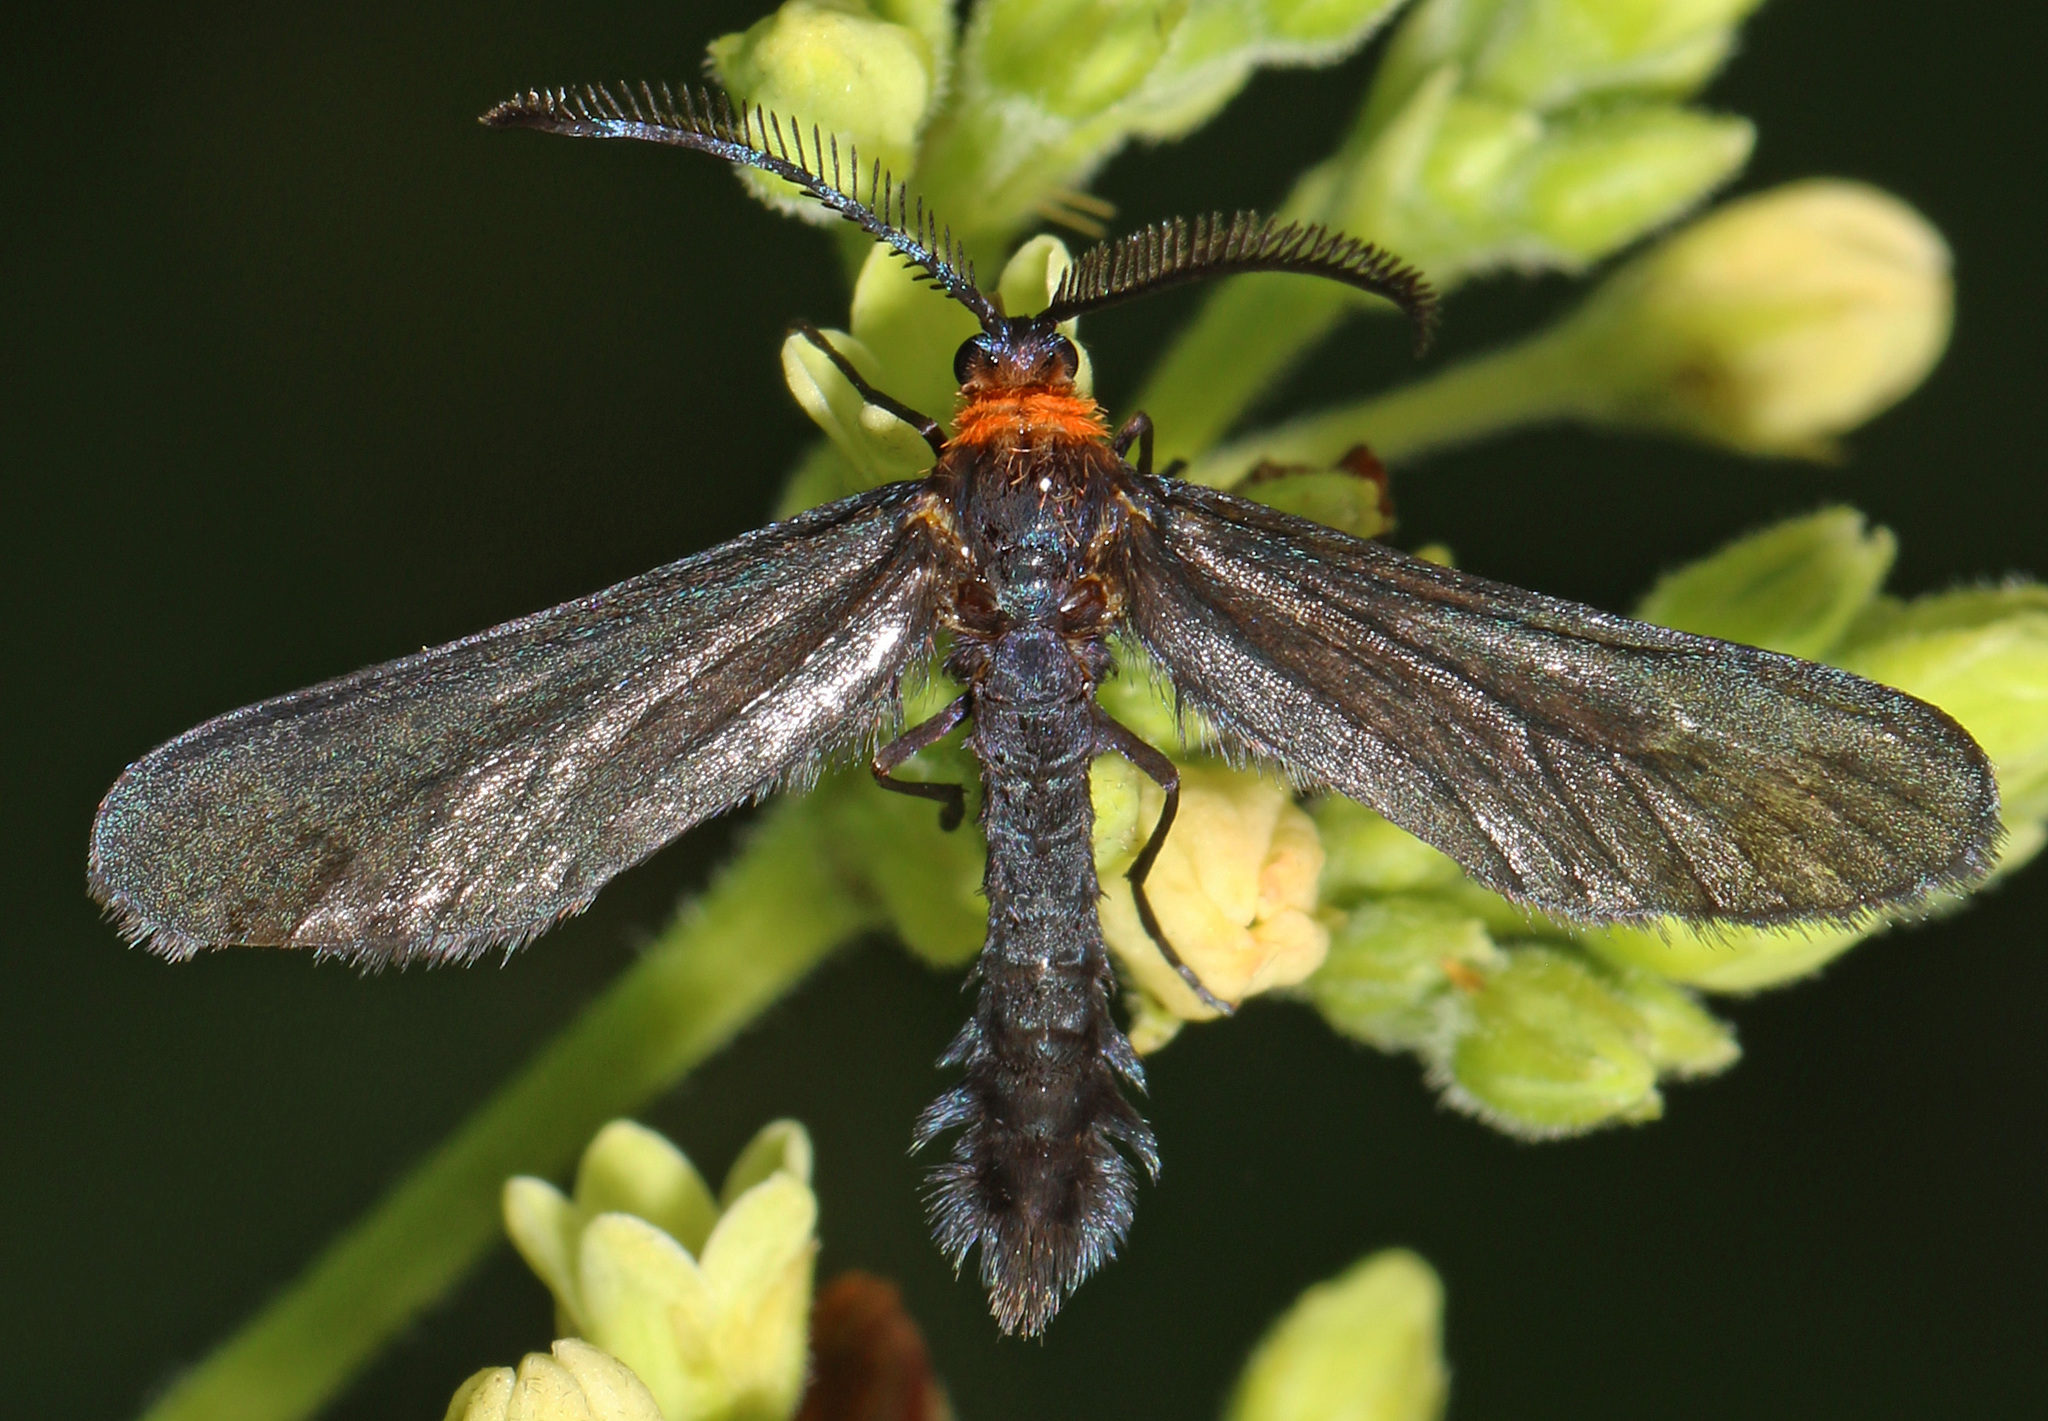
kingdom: Animalia
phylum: Arthropoda
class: Insecta
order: Lepidoptera
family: Zygaenidae
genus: Harrisina
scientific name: Harrisina americana
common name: Grapeleaf skeletonizer moth
